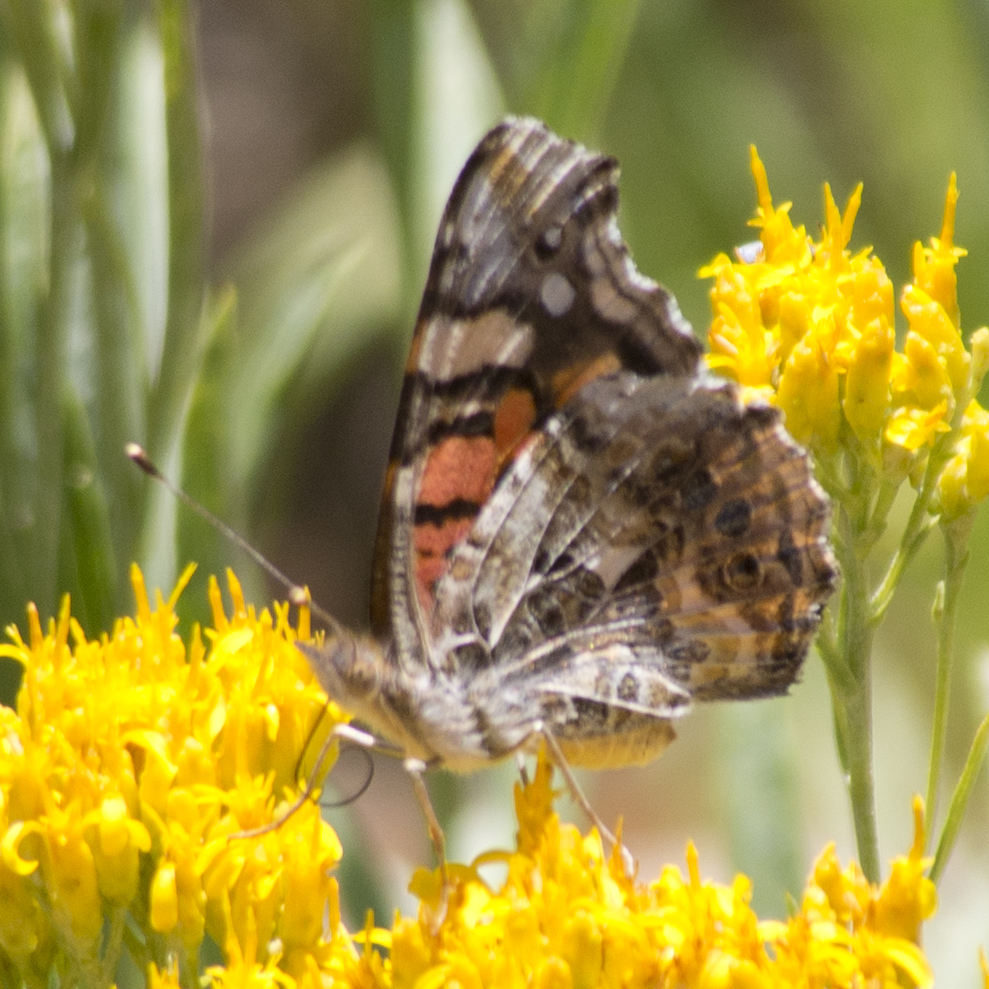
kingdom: Animalia
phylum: Arthropoda
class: Insecta
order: Lepidoptera
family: Nymphalidae
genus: Vanessa
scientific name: Vanessa annabella
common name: West coast lady
